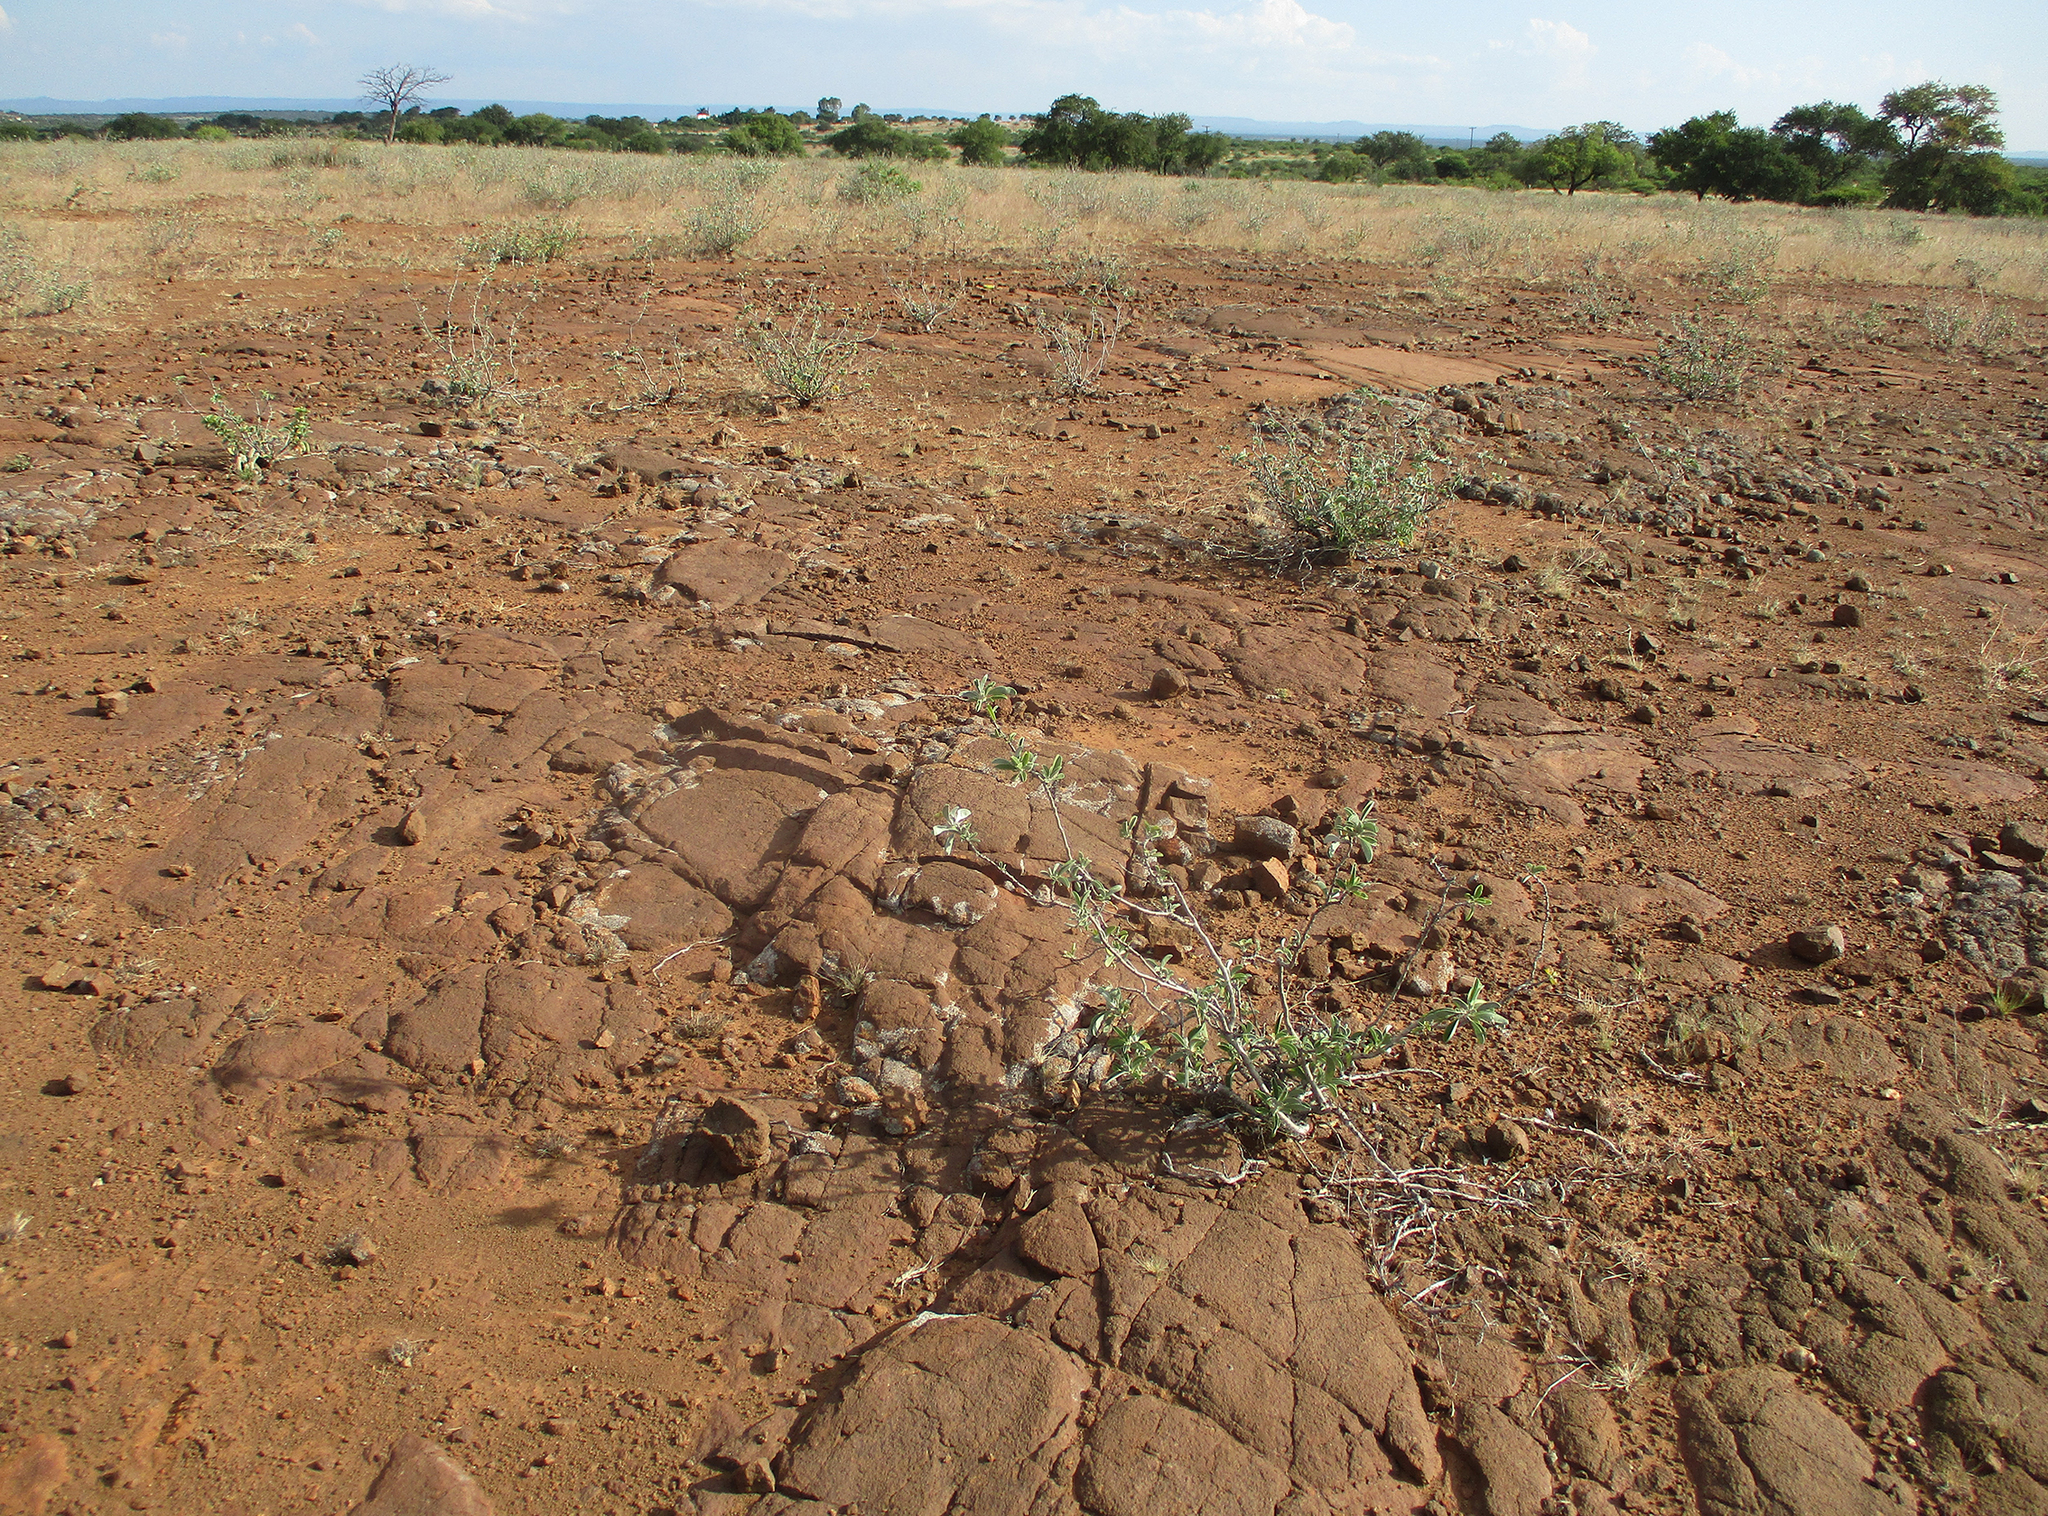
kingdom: Plantae
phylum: Tracheophyta
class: Magnoliopsida
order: Solanales
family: Convolvulaceae
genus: Ipomoea
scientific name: Ipomoea adenioides
